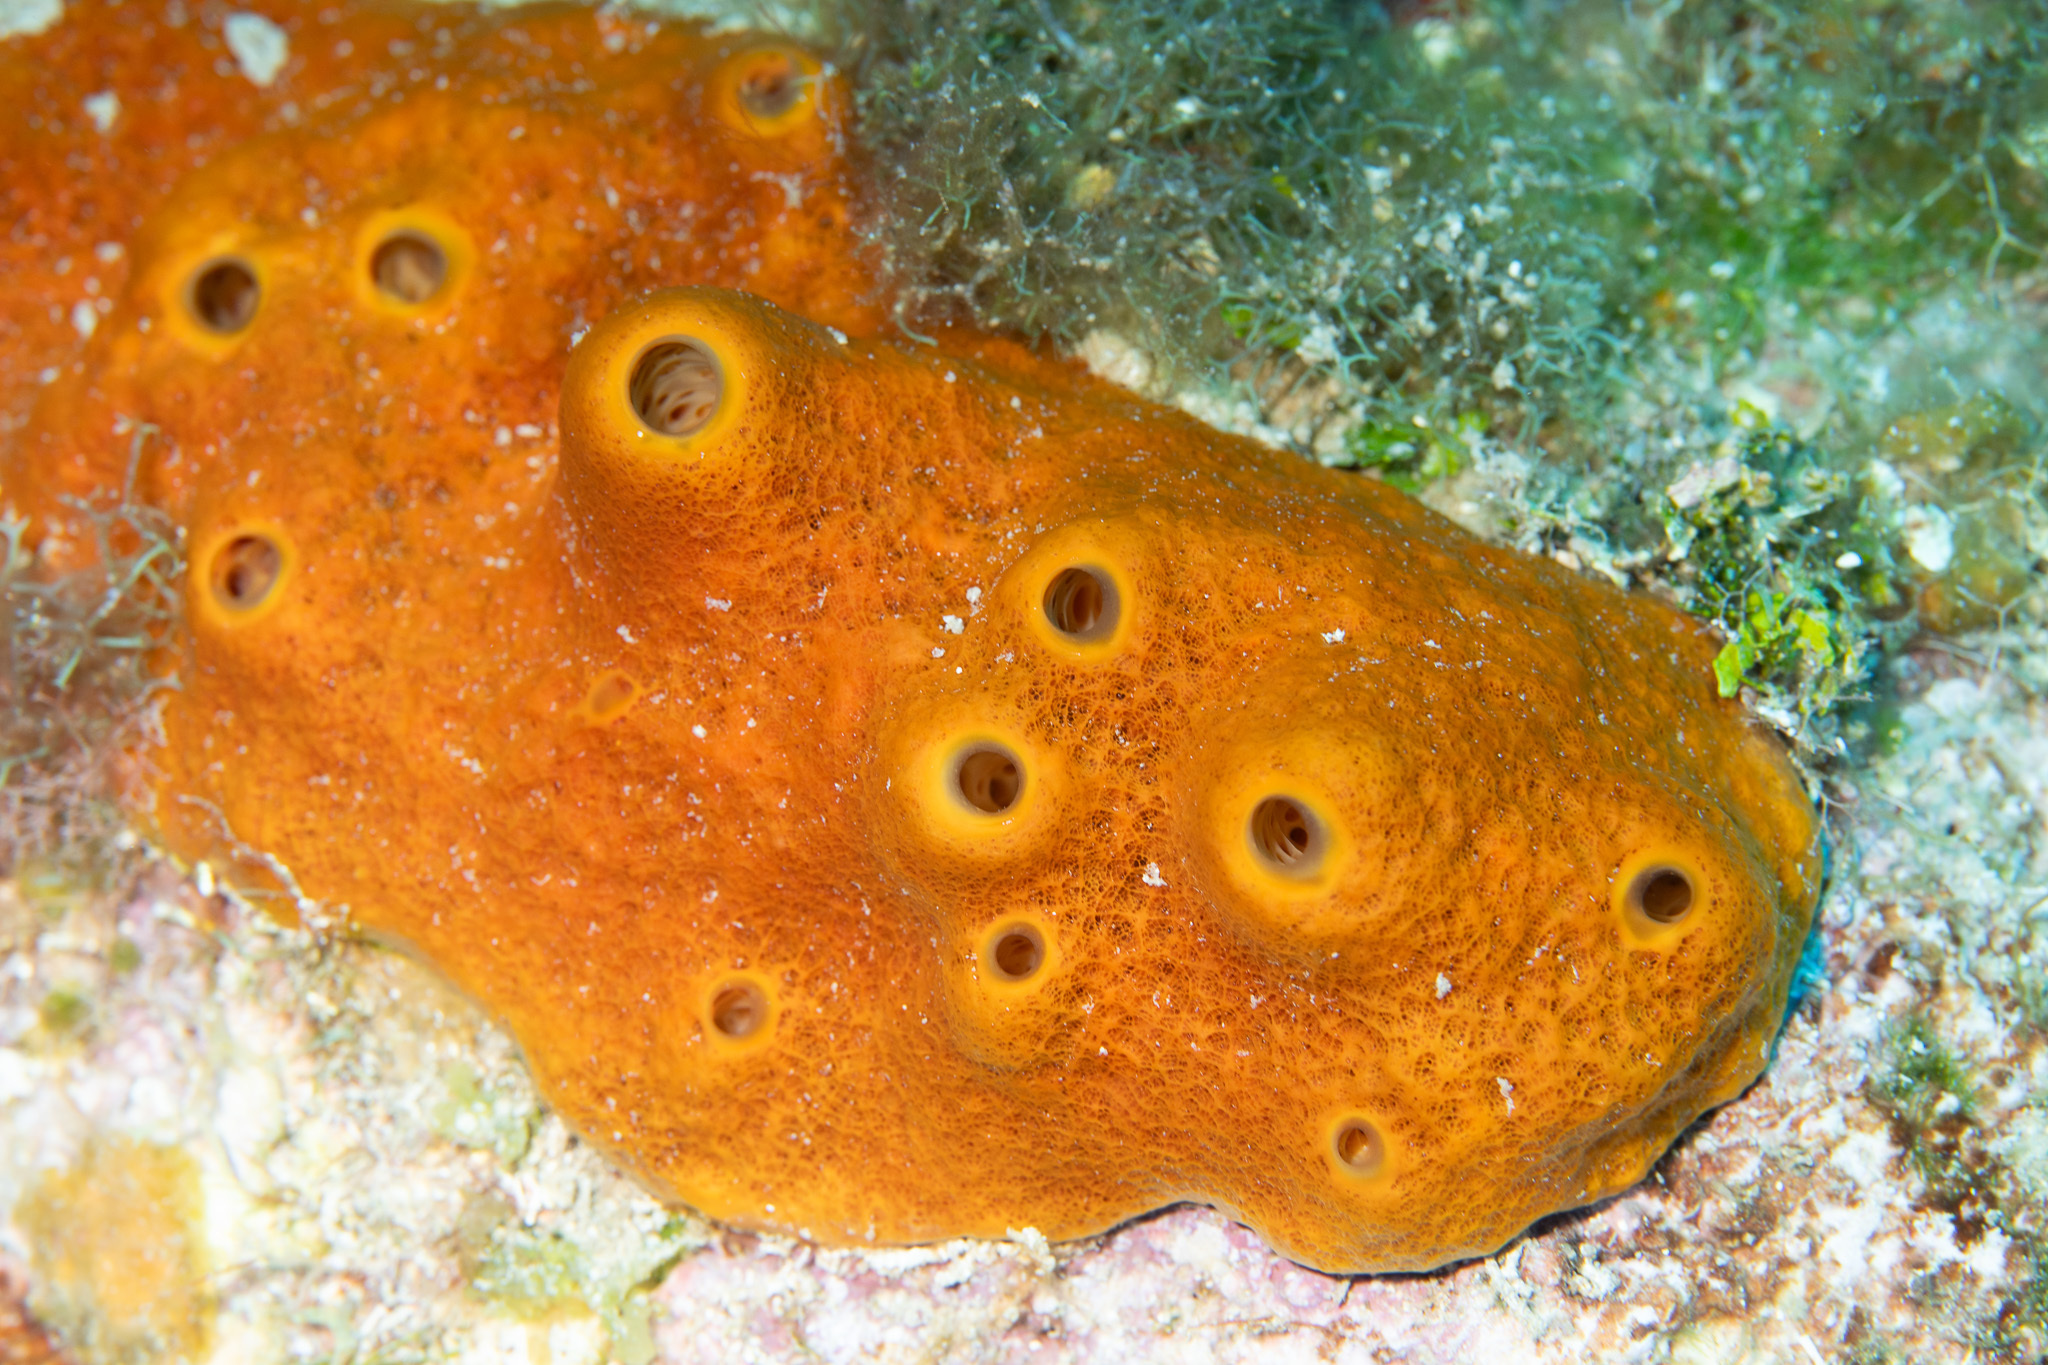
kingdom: Animalia
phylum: Porifera
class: Demospongiae
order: Axinellida
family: Raspailiidae
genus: Ectyoplasia
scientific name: Ectyoplasia ferox
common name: Brown encrusting octopus sponge
